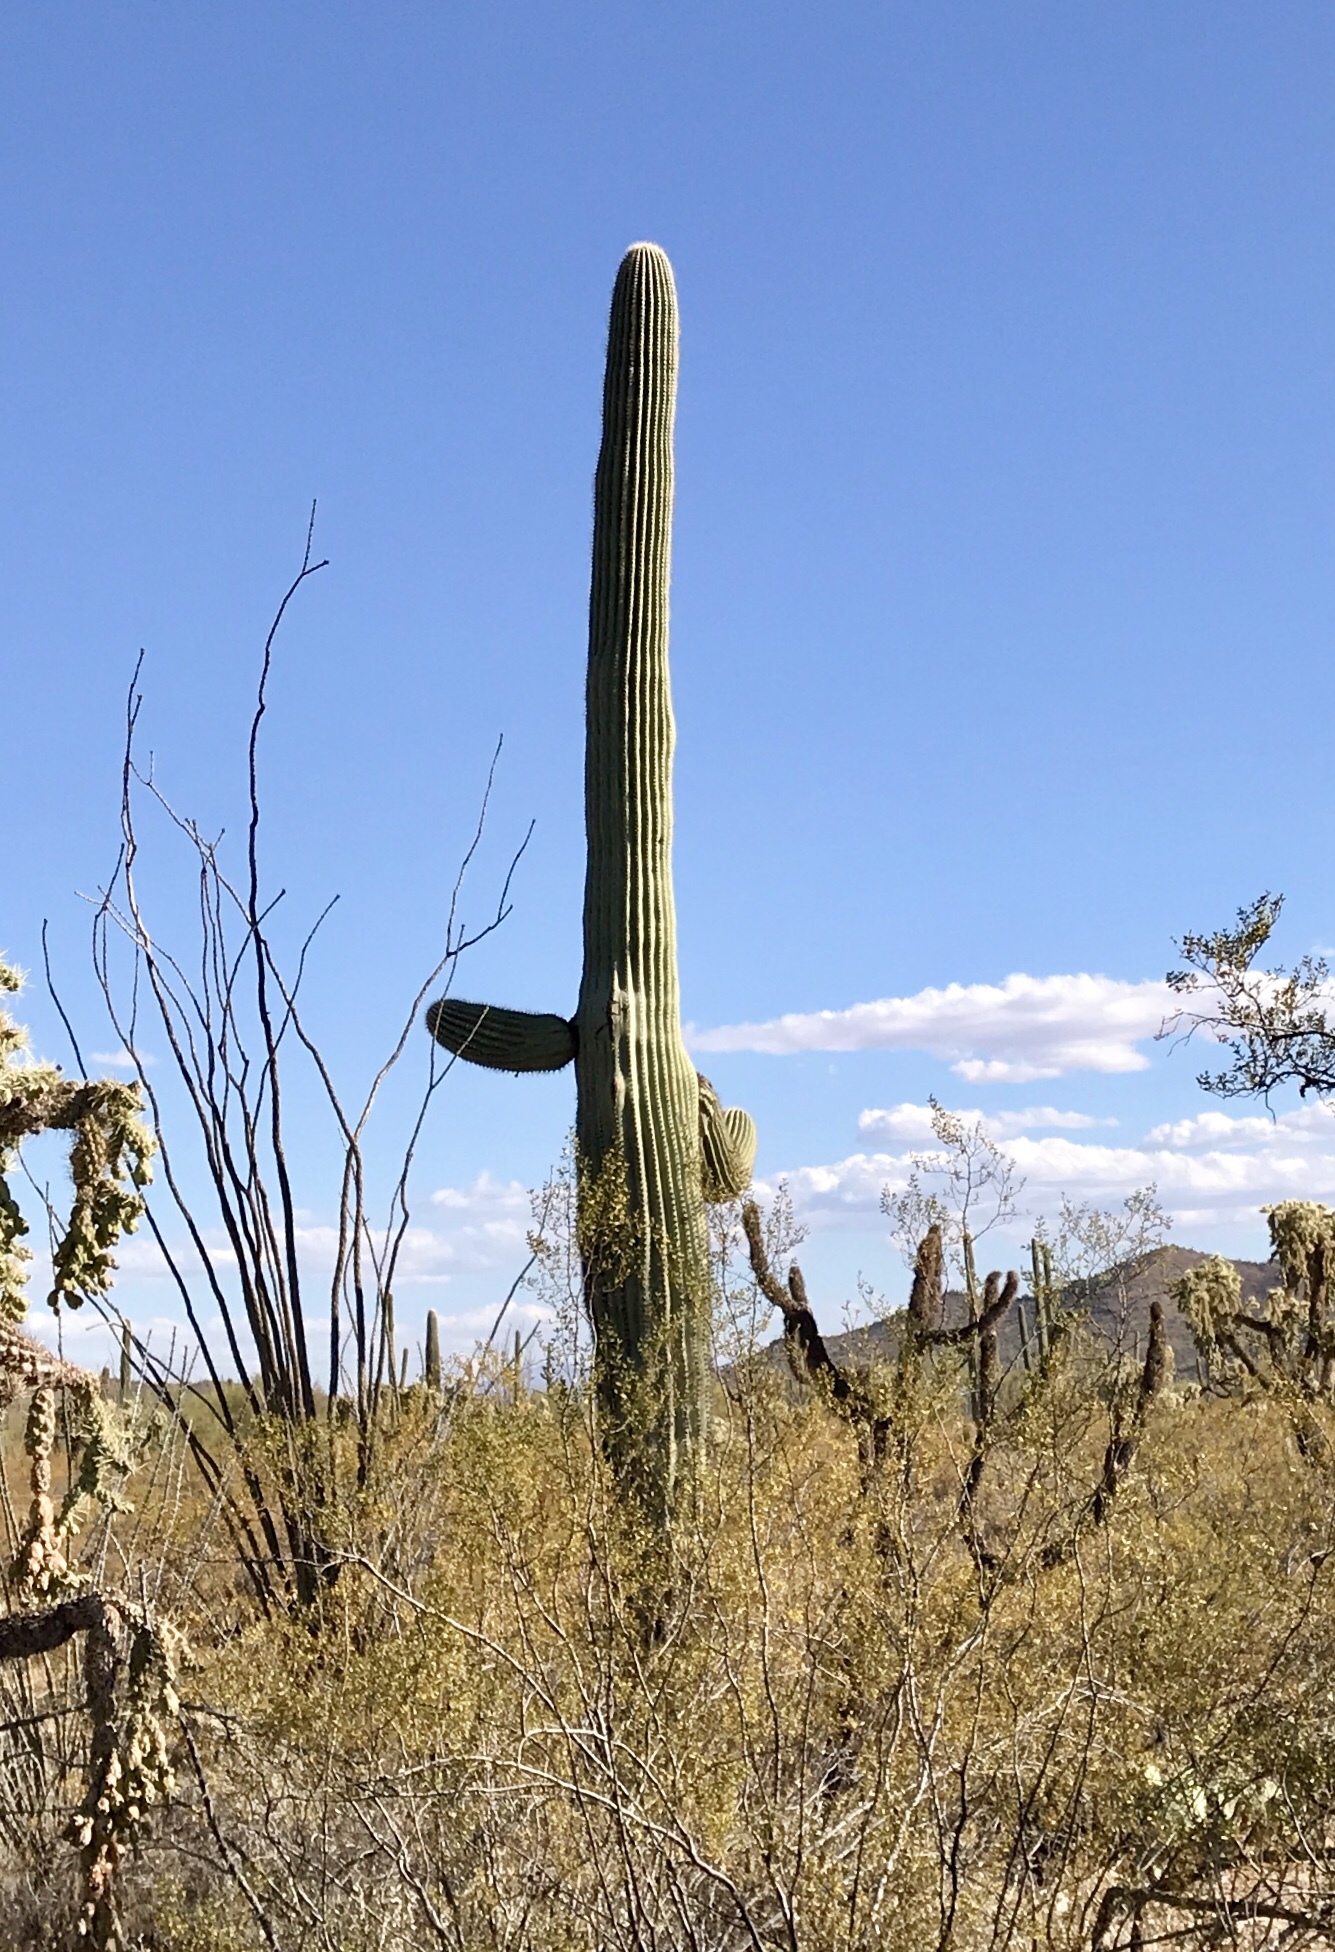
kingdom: Plantae
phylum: Tracheophyta
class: Magnoliopsida
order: Caryophyllales
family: Cactaceae
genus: Carnegiea
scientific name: Carnegiea gigantea
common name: Saguaro
